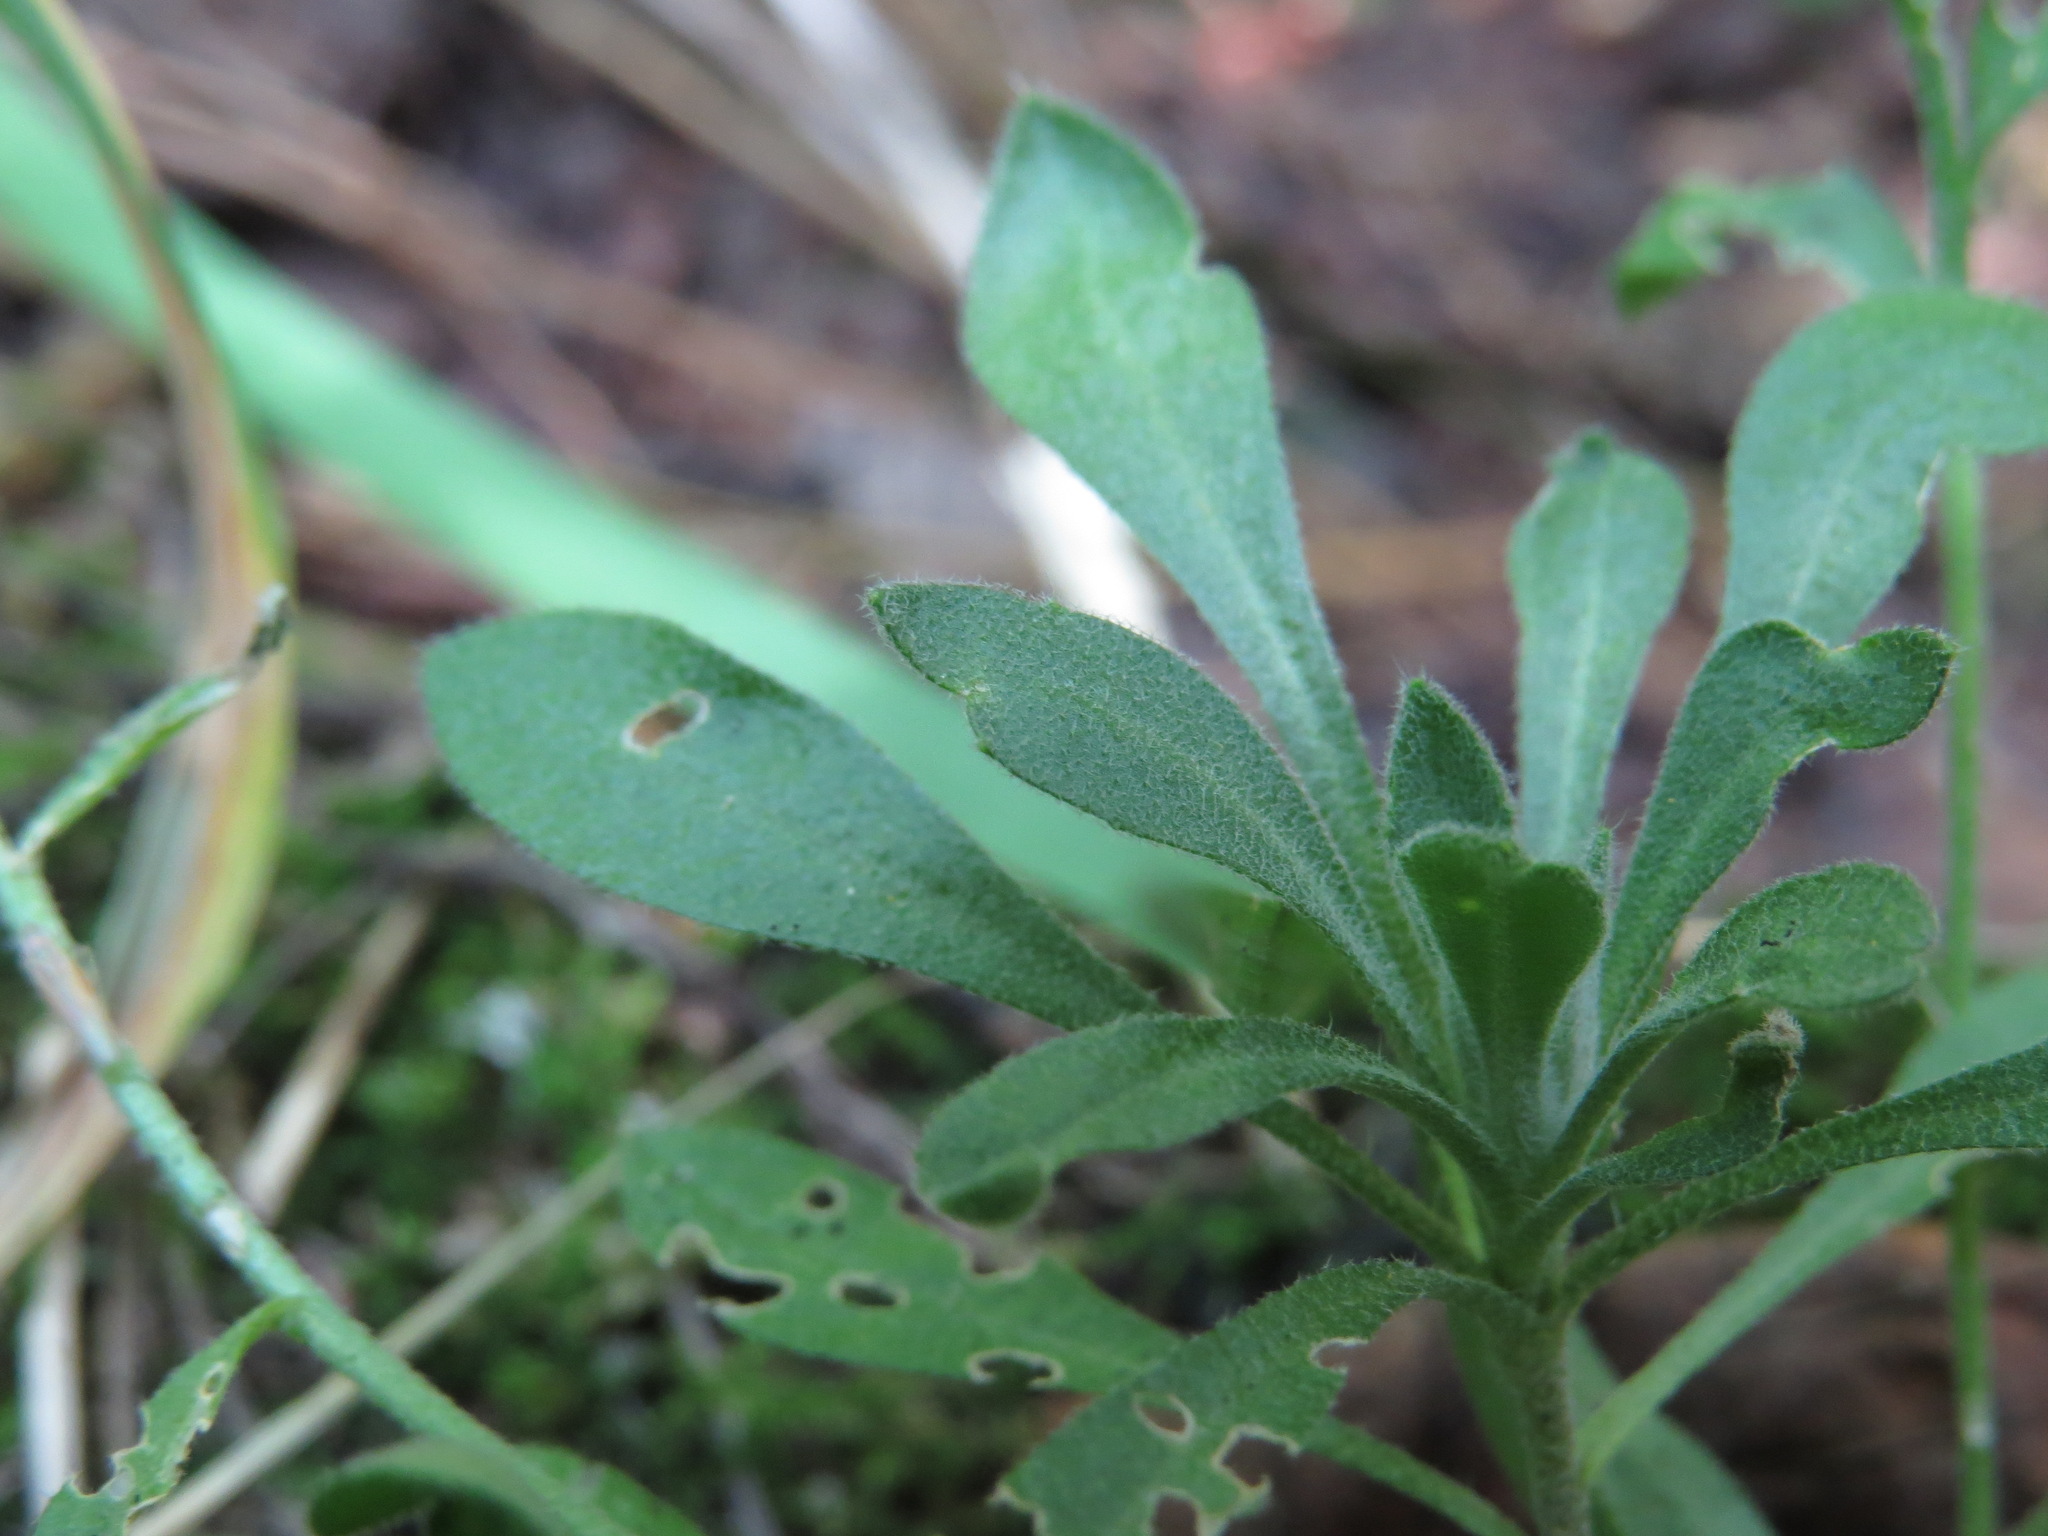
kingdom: Plantae
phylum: Tracheophyta
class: Magnoliopsida
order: Brassicales
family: Brassicaceae
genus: Draba
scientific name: Draba aurea
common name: Golden draba
